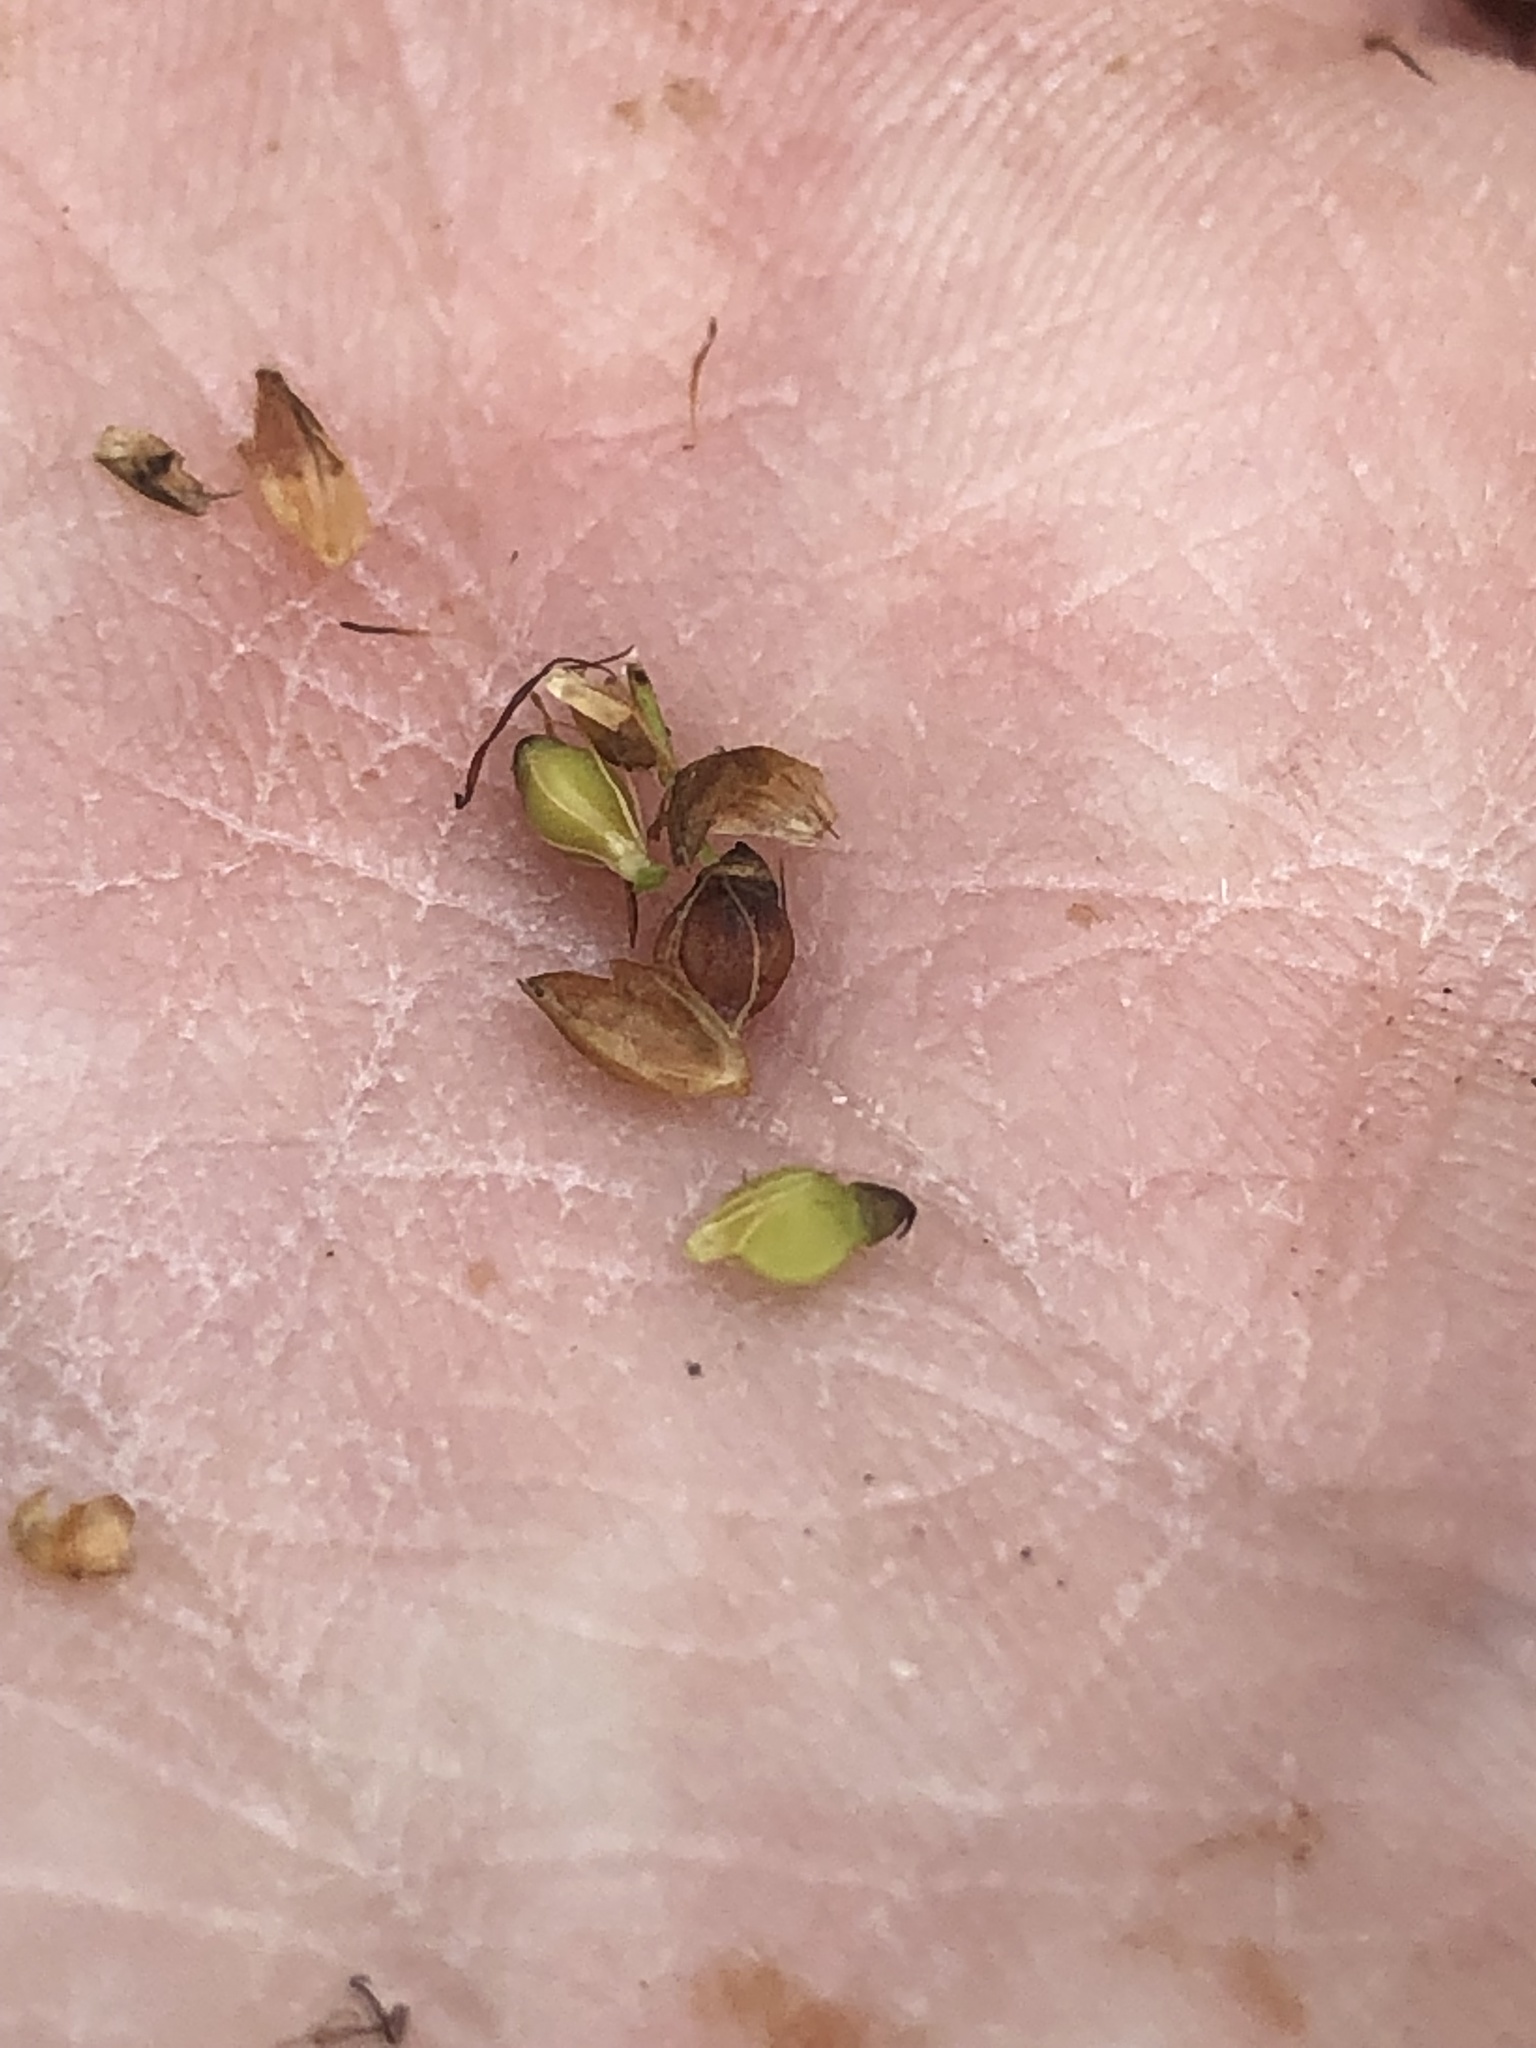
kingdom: Plantae
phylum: Tracheophyta
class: Liliopsida
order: Poales
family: Cyperaceae
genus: Rhynchospora
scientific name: Rhynchospora grayi
